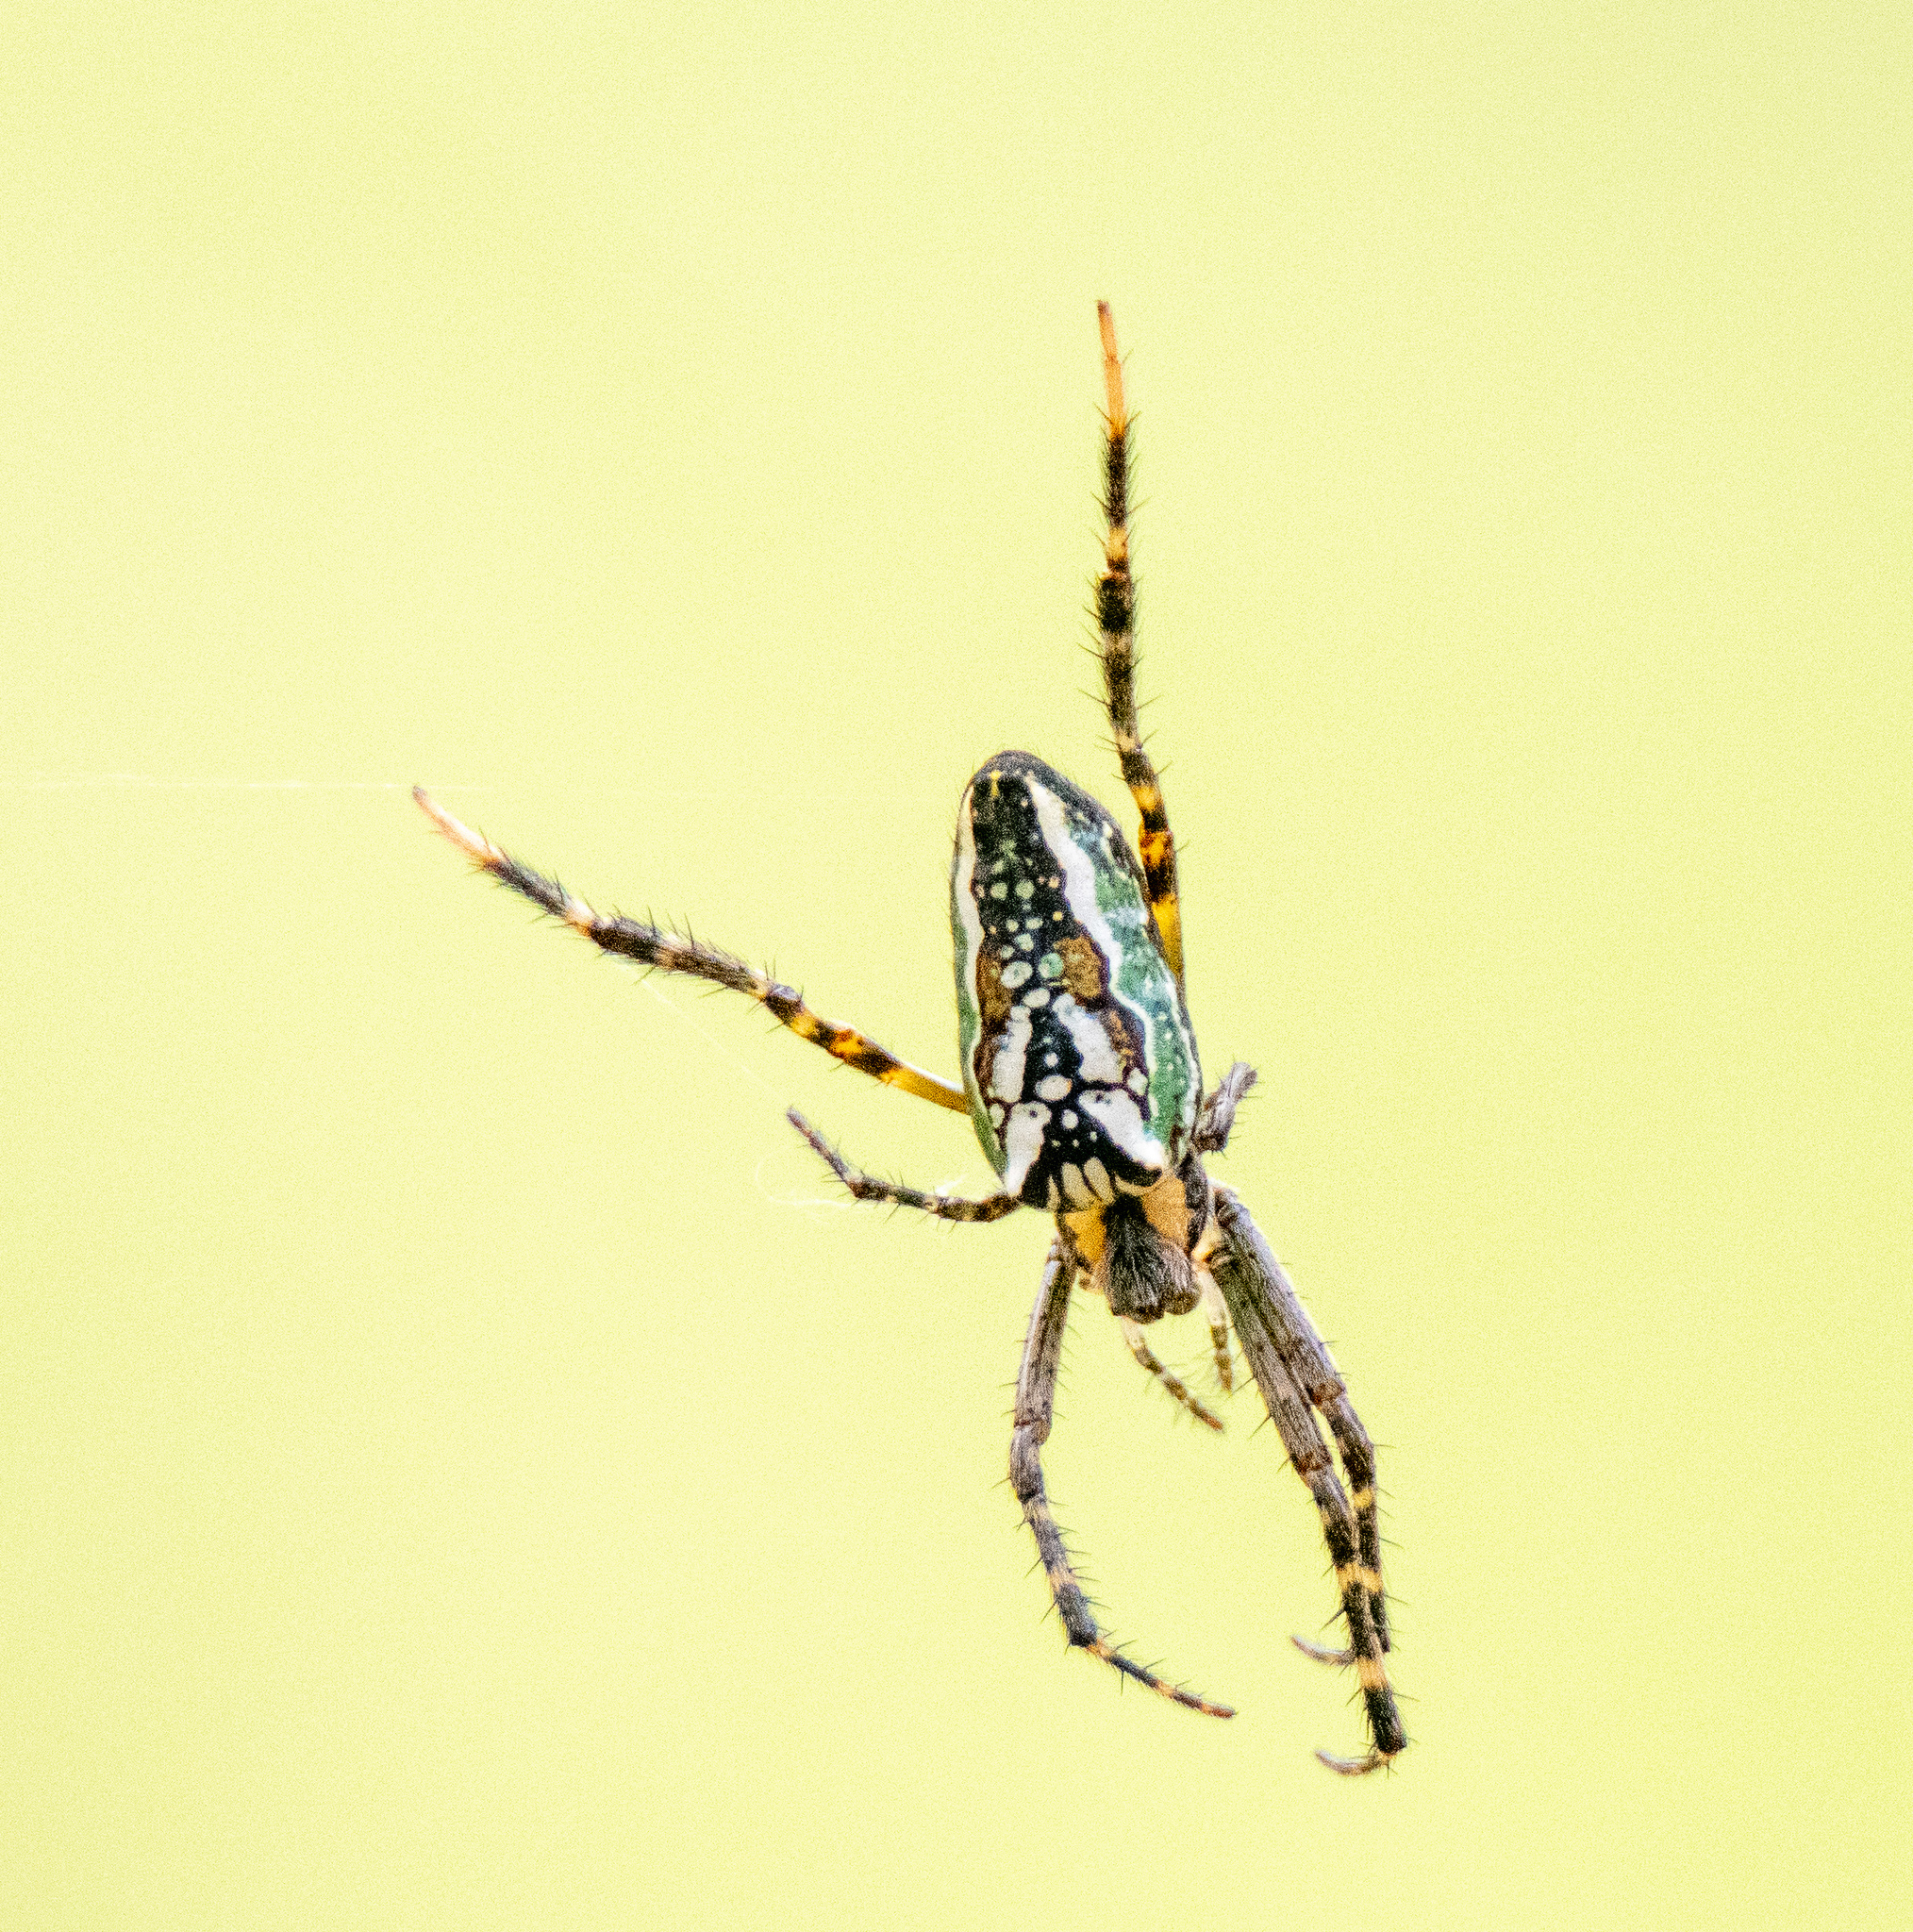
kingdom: Animalia
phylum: Arthropoda
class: Arachnida
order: Araneae
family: Araneidae
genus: Plebs
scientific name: Plebs bradleyi
